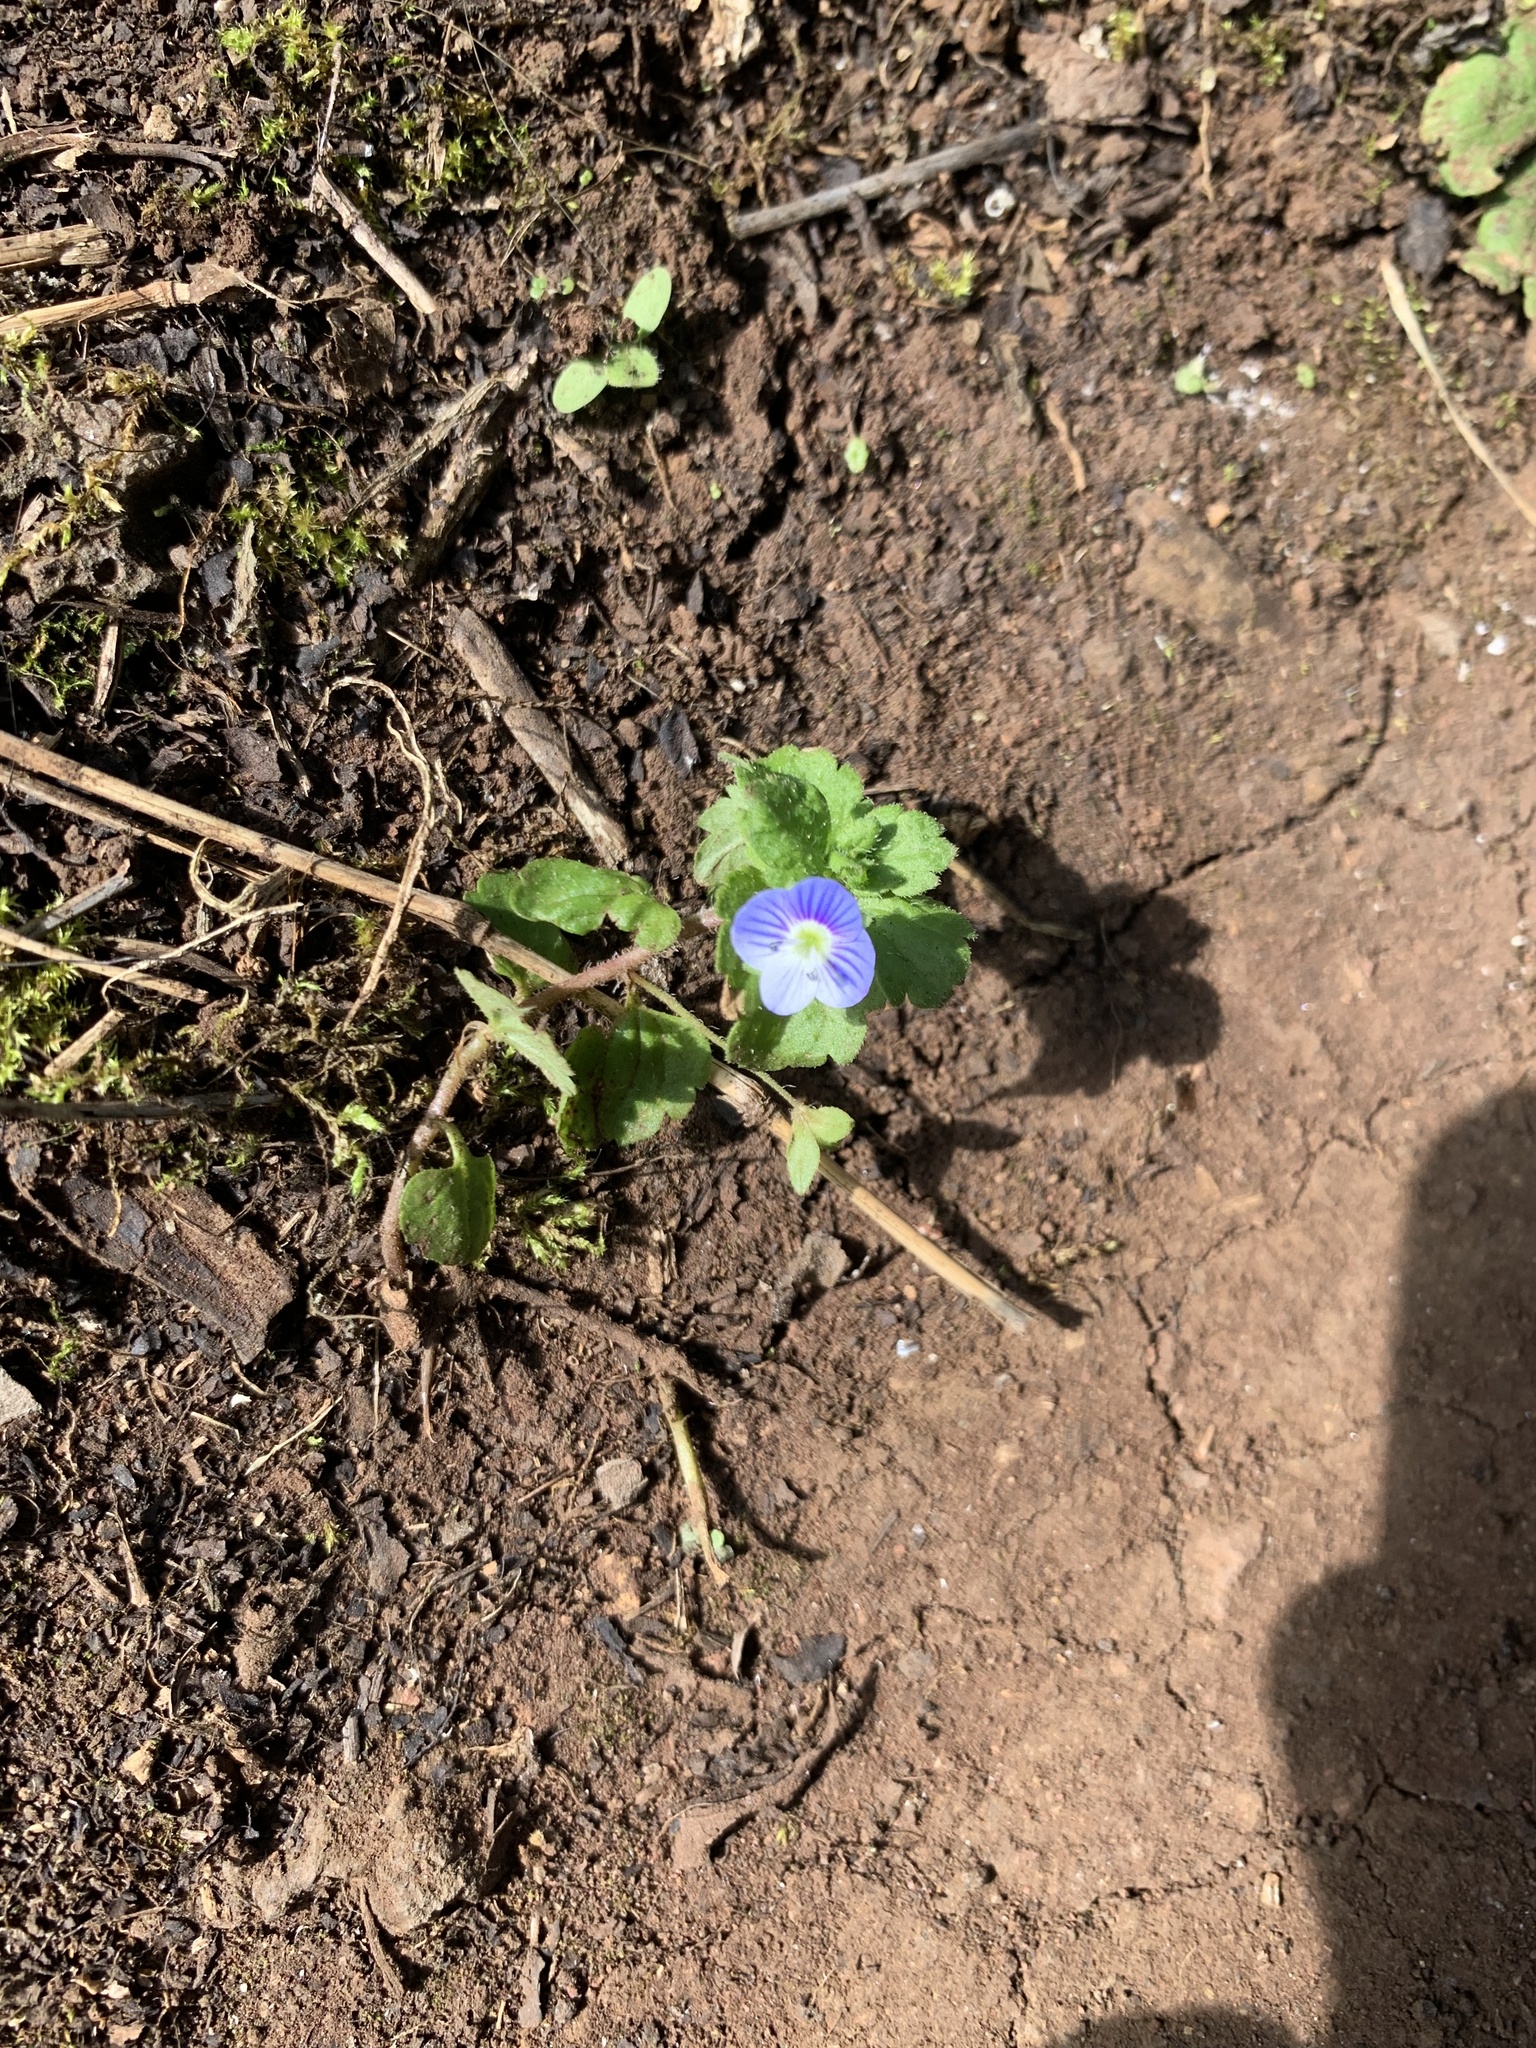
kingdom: Plantae
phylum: Tracheophyta
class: Magnoliopsida
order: Lamiales
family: Plantaginaceae
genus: Veronica
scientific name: Veronica persica
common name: Common field-speedwell
